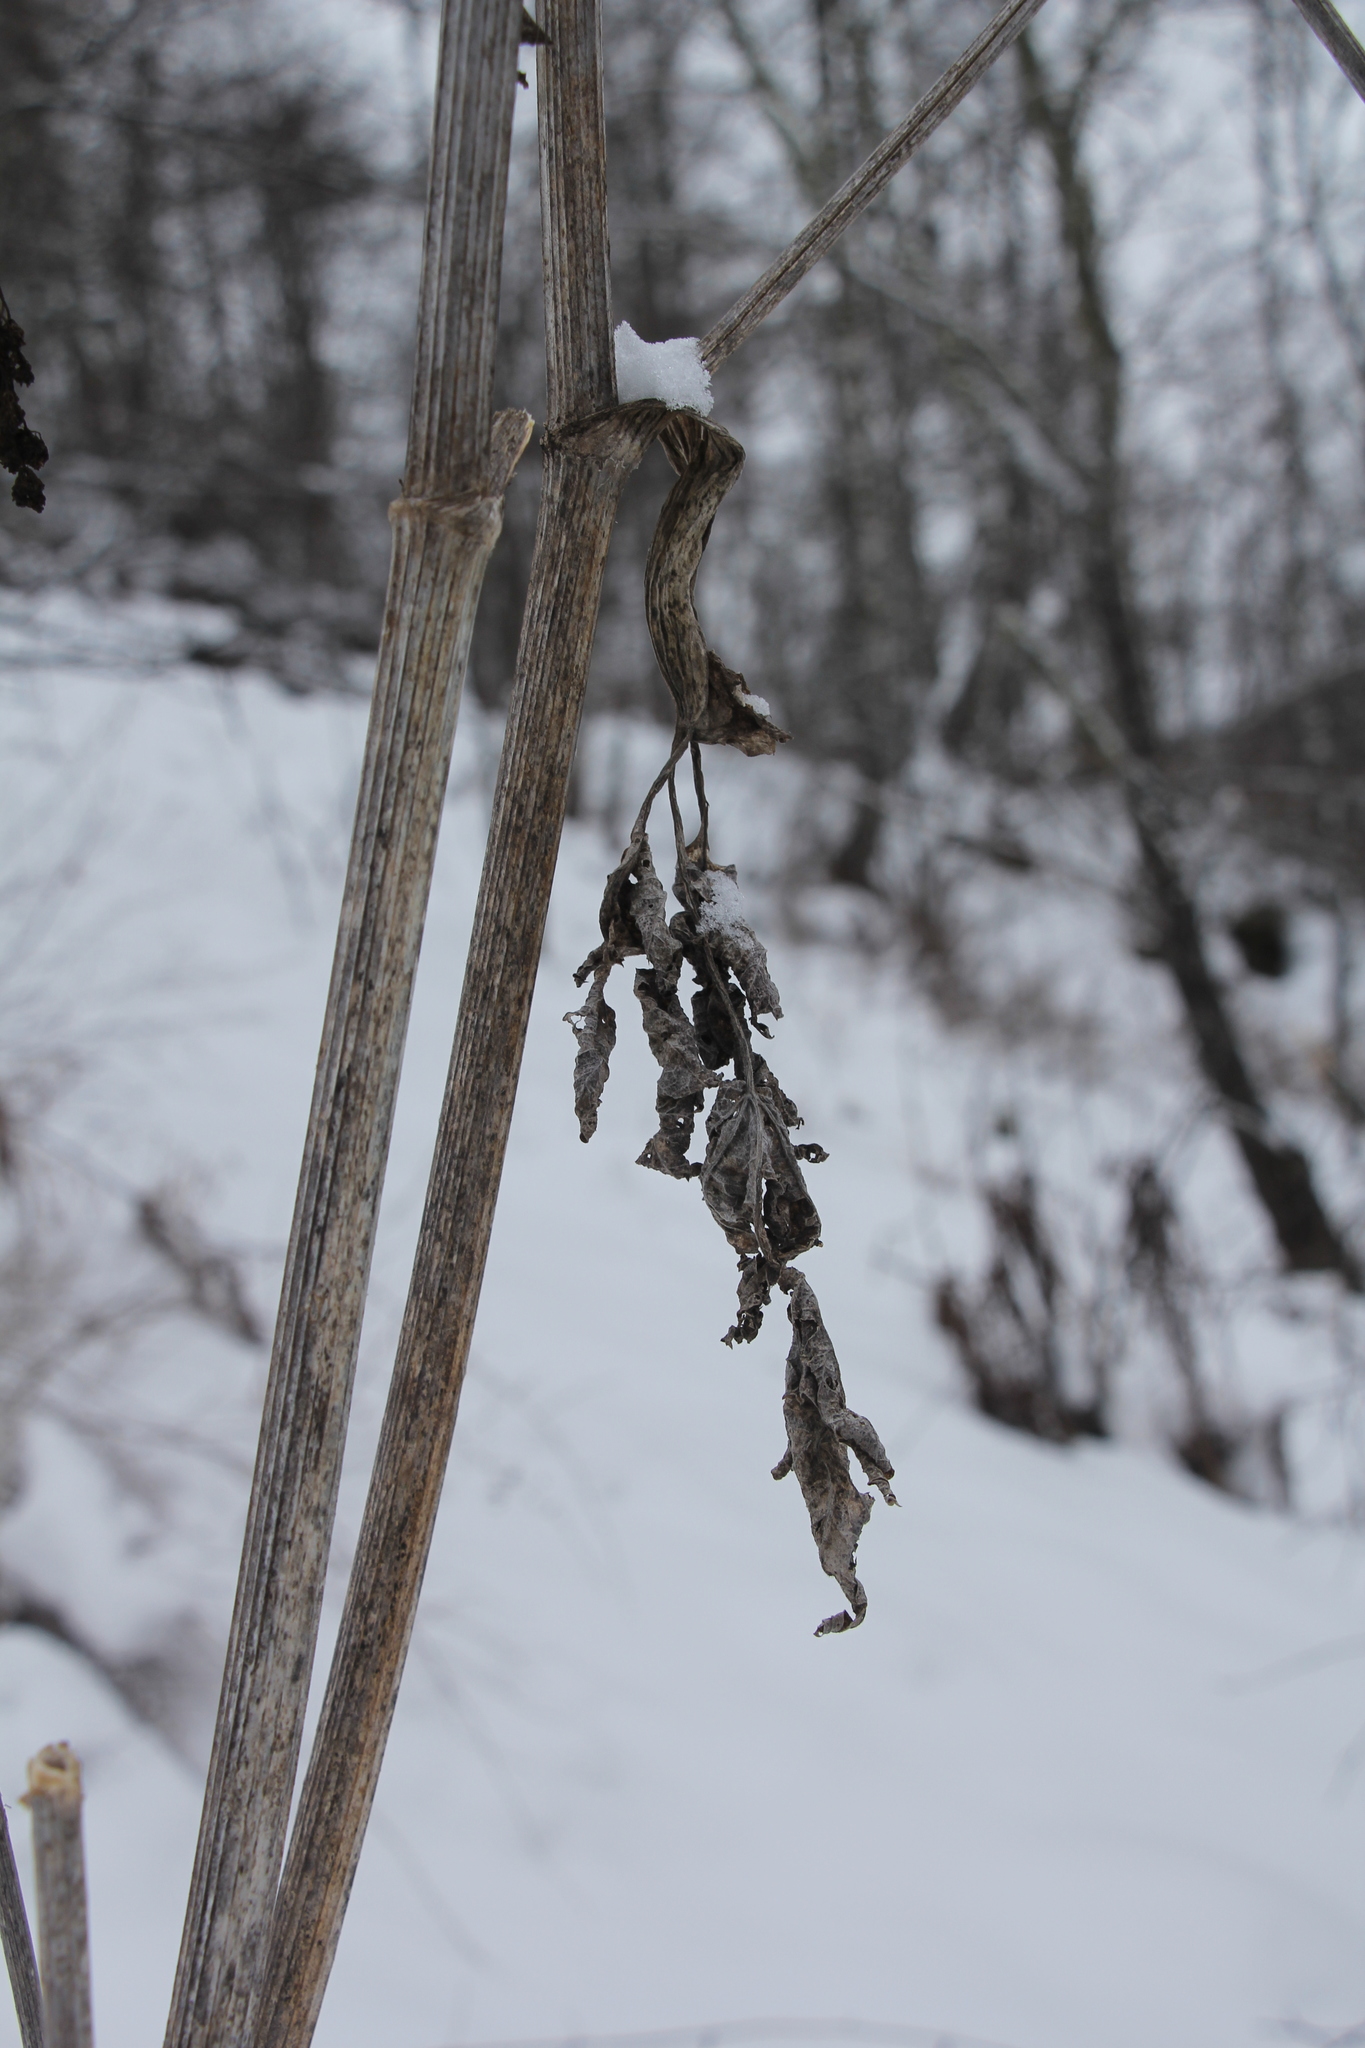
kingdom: Plantae
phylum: Tracheophyta
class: Magnoliopsida
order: Apiales
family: Apiaceae
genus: Heracleum
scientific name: Heracleum dissectum
